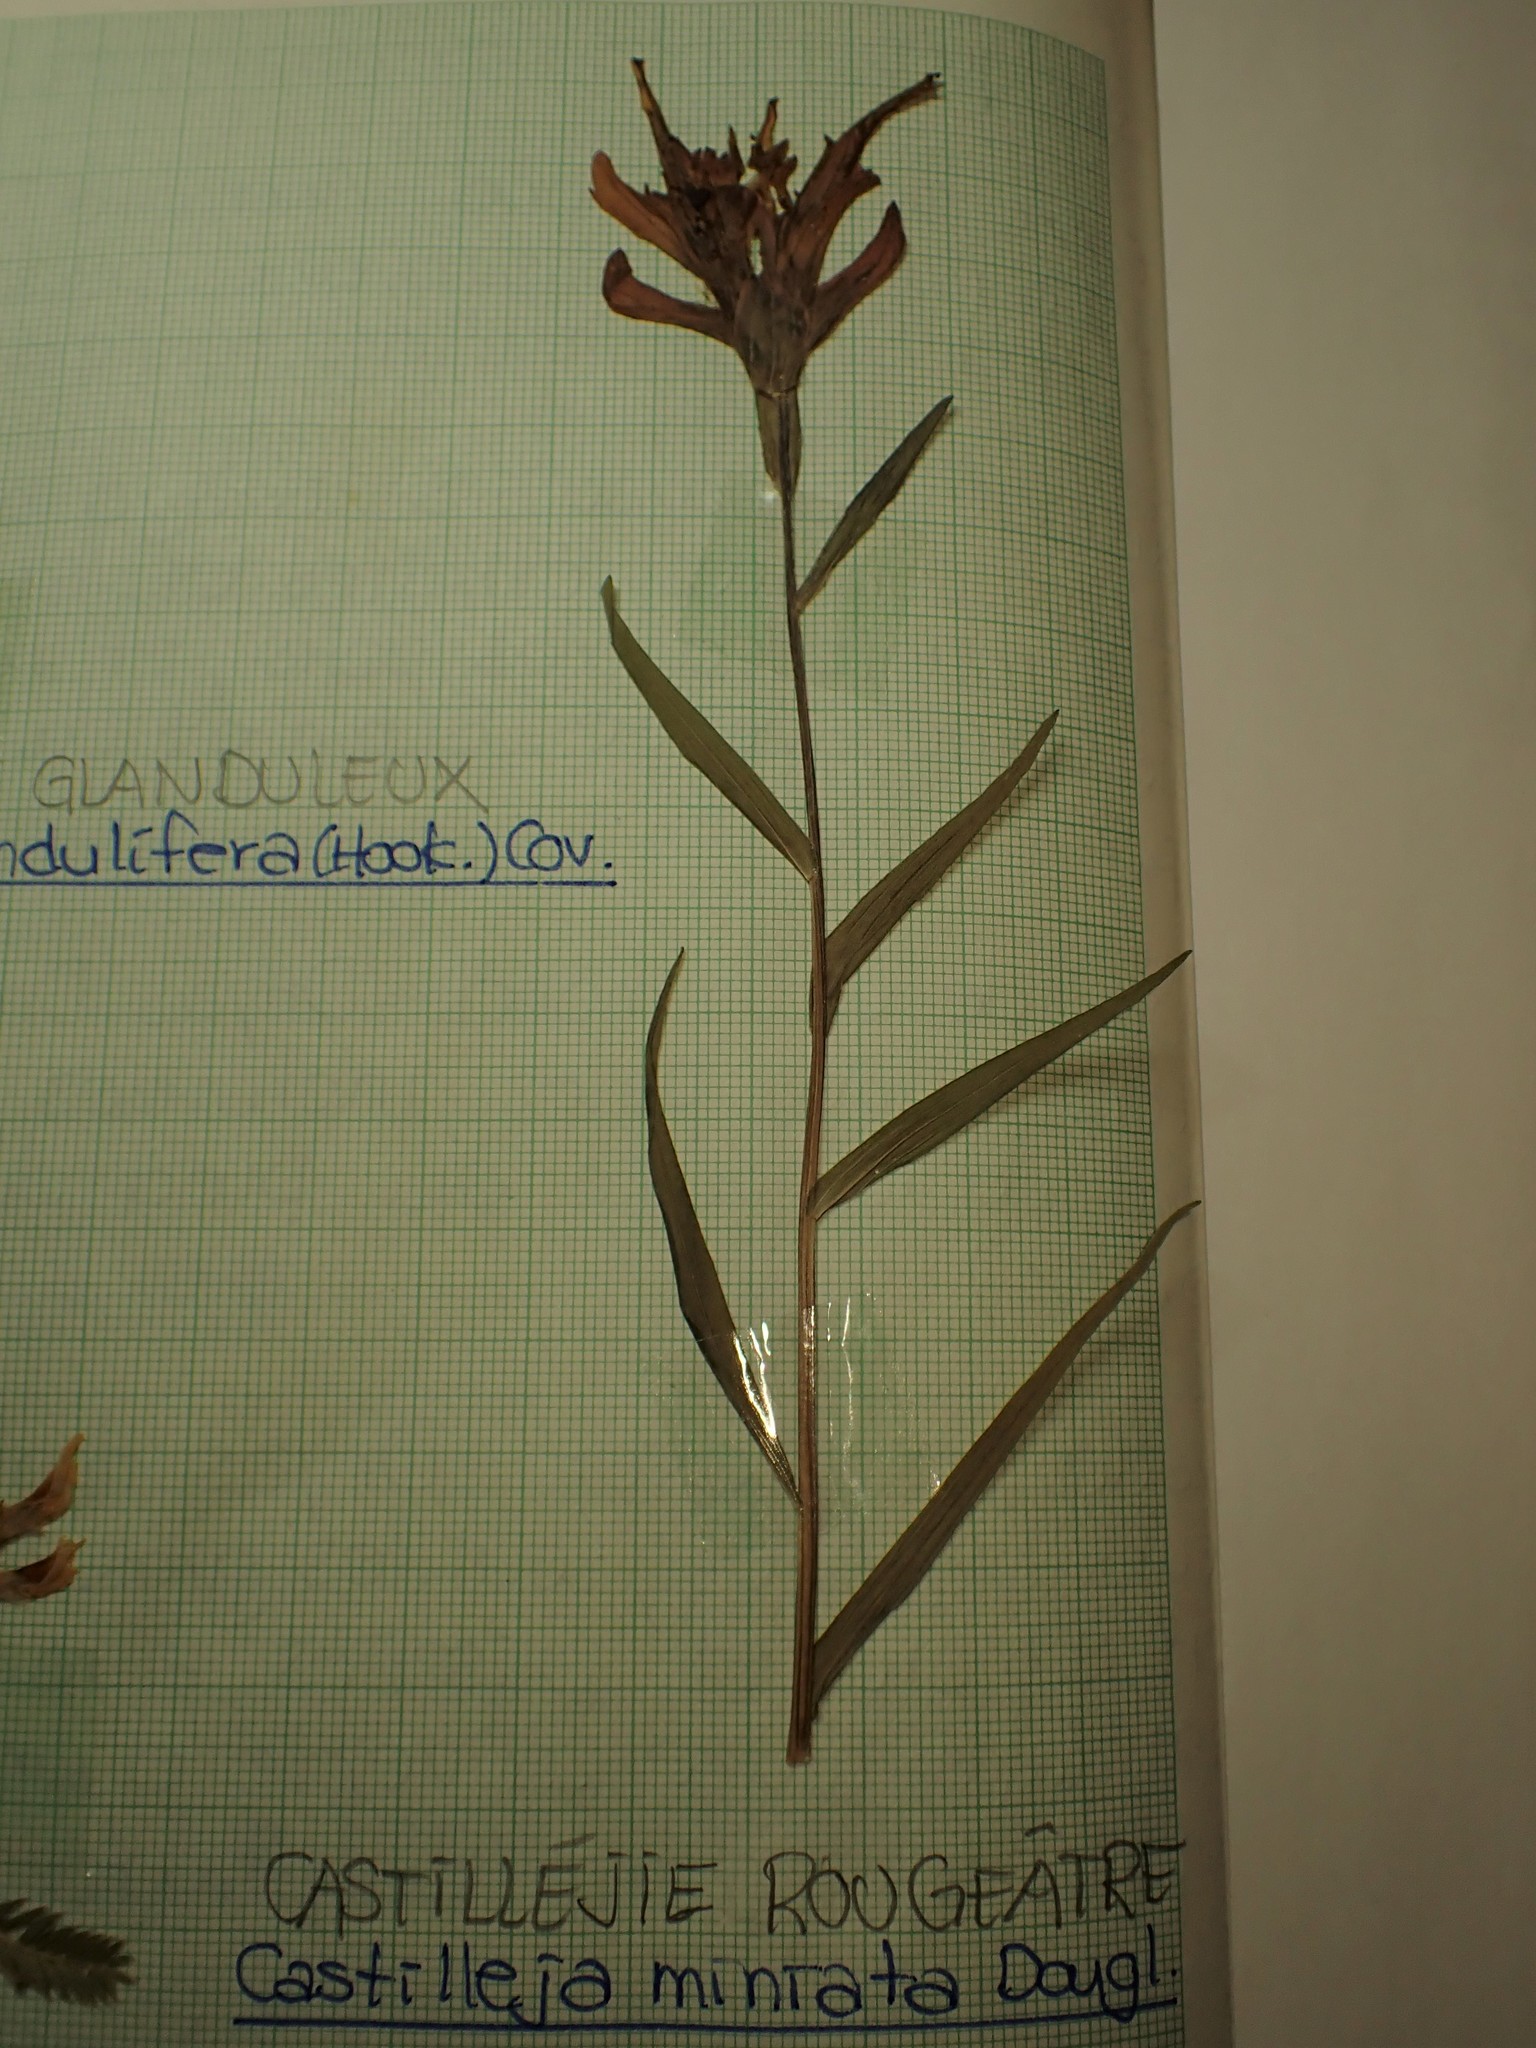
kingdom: Plantae
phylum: Tracheophyta
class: Magnoliopsida
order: Lamiales
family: Orobanchaceae
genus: Castilleja
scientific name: Castilleja miniata
